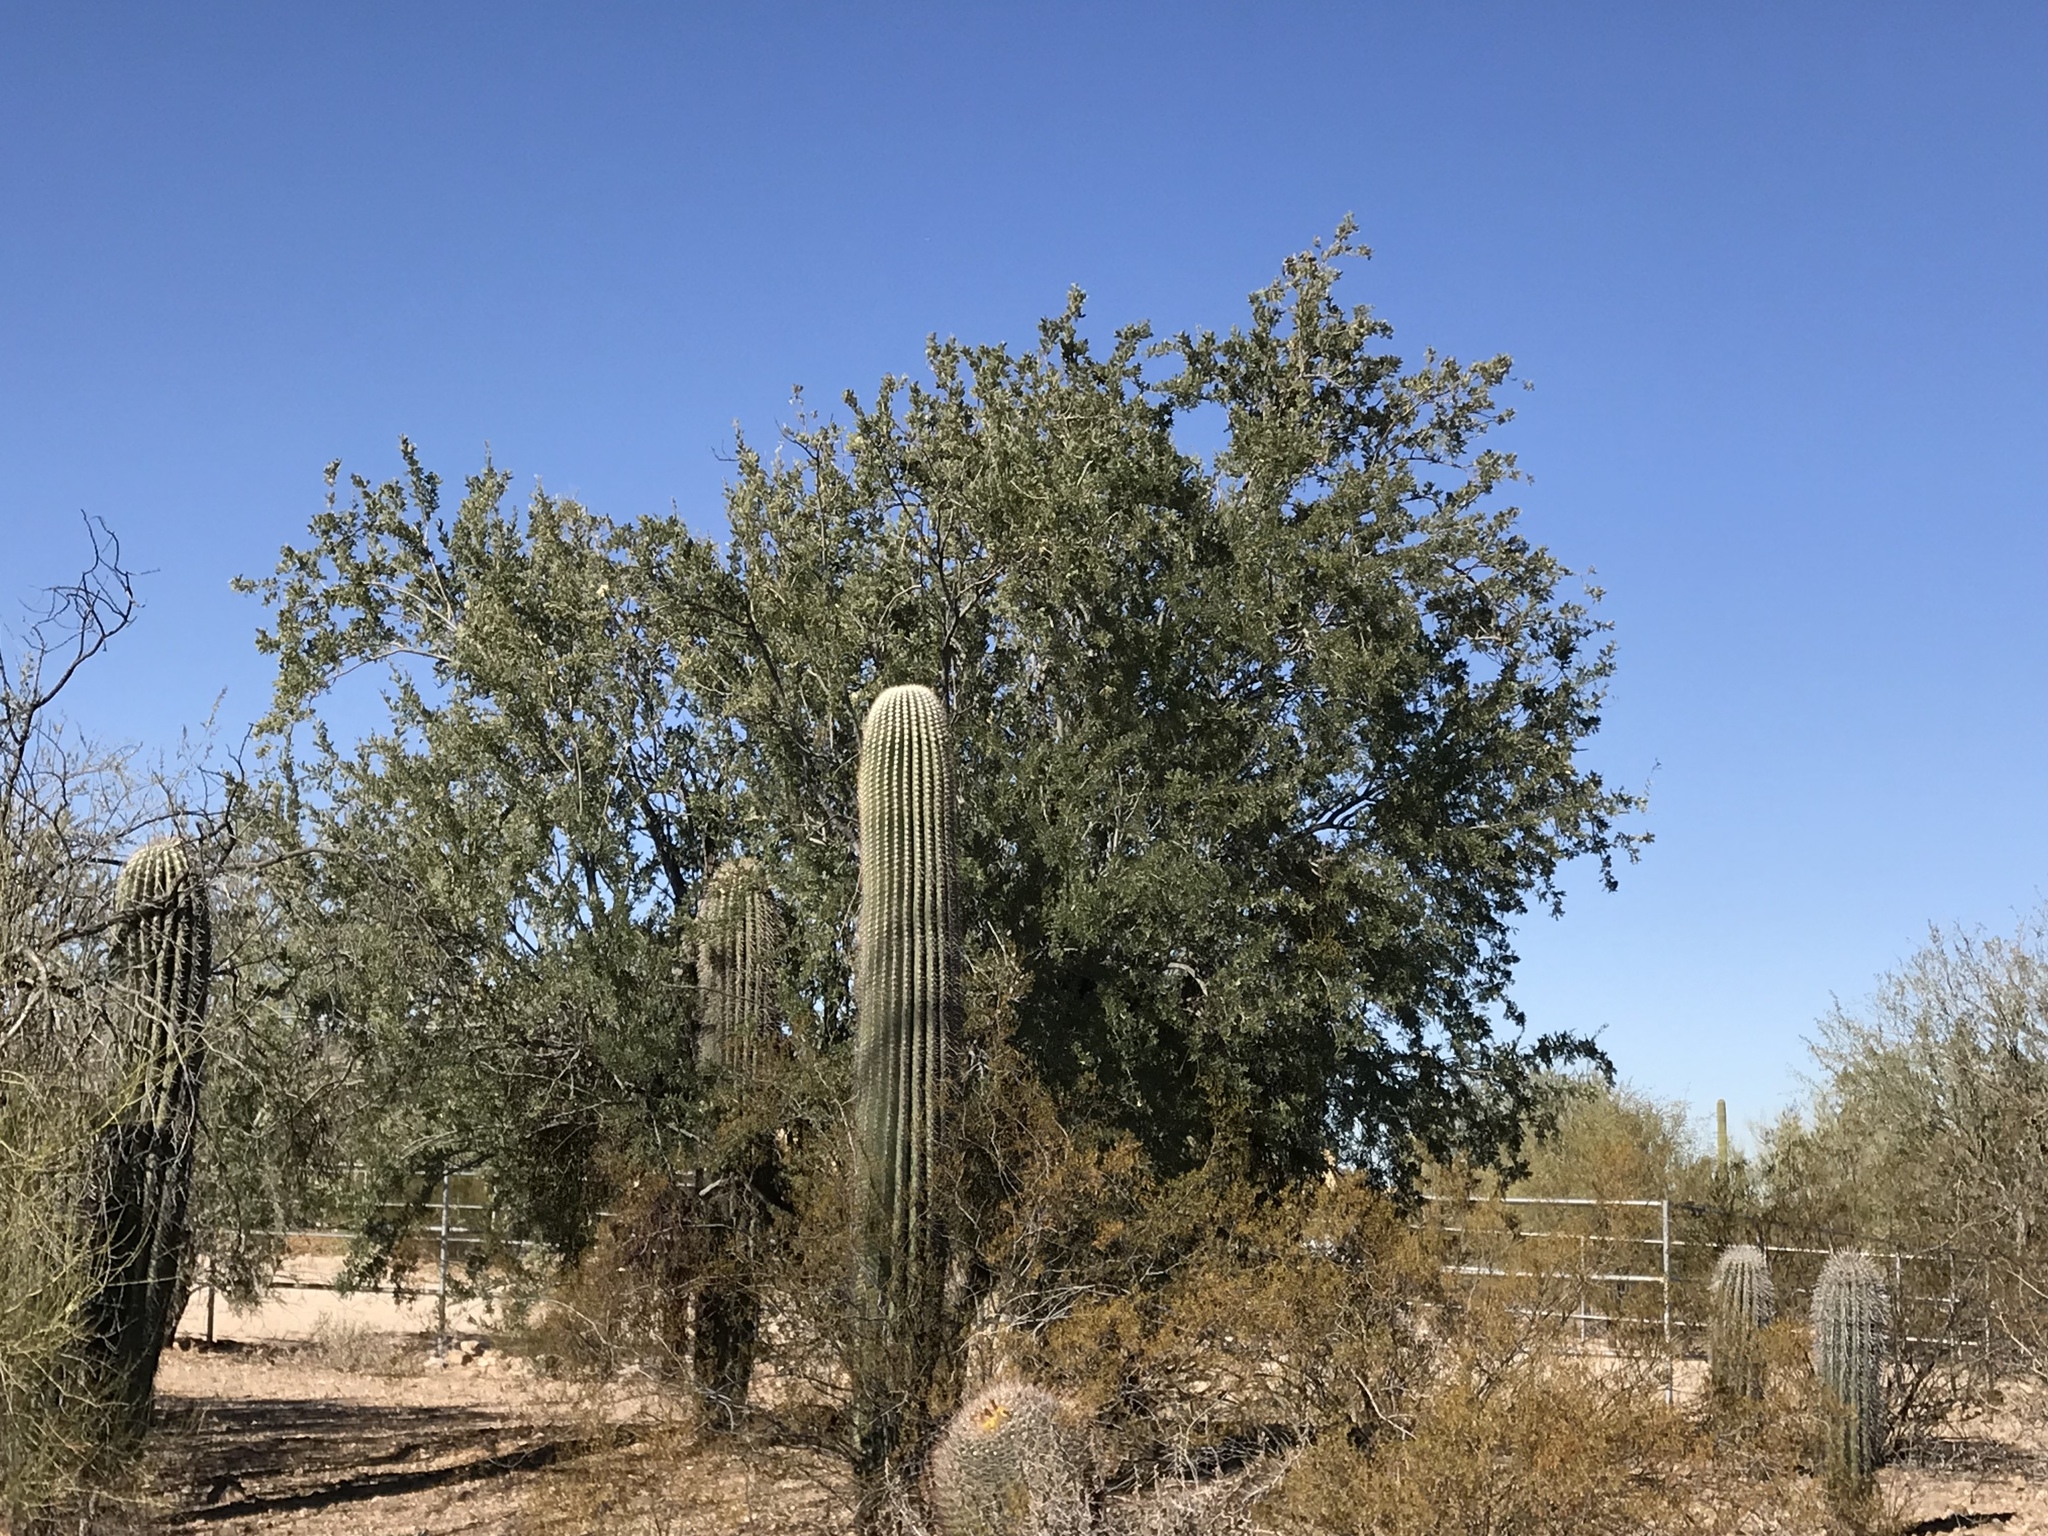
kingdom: Plantae
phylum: Tracheophyta
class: Magnoliopsida
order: Caryophyllales
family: Cactaceae
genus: Carnegiea
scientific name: Carnegiea gigantea
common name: Saguaro
